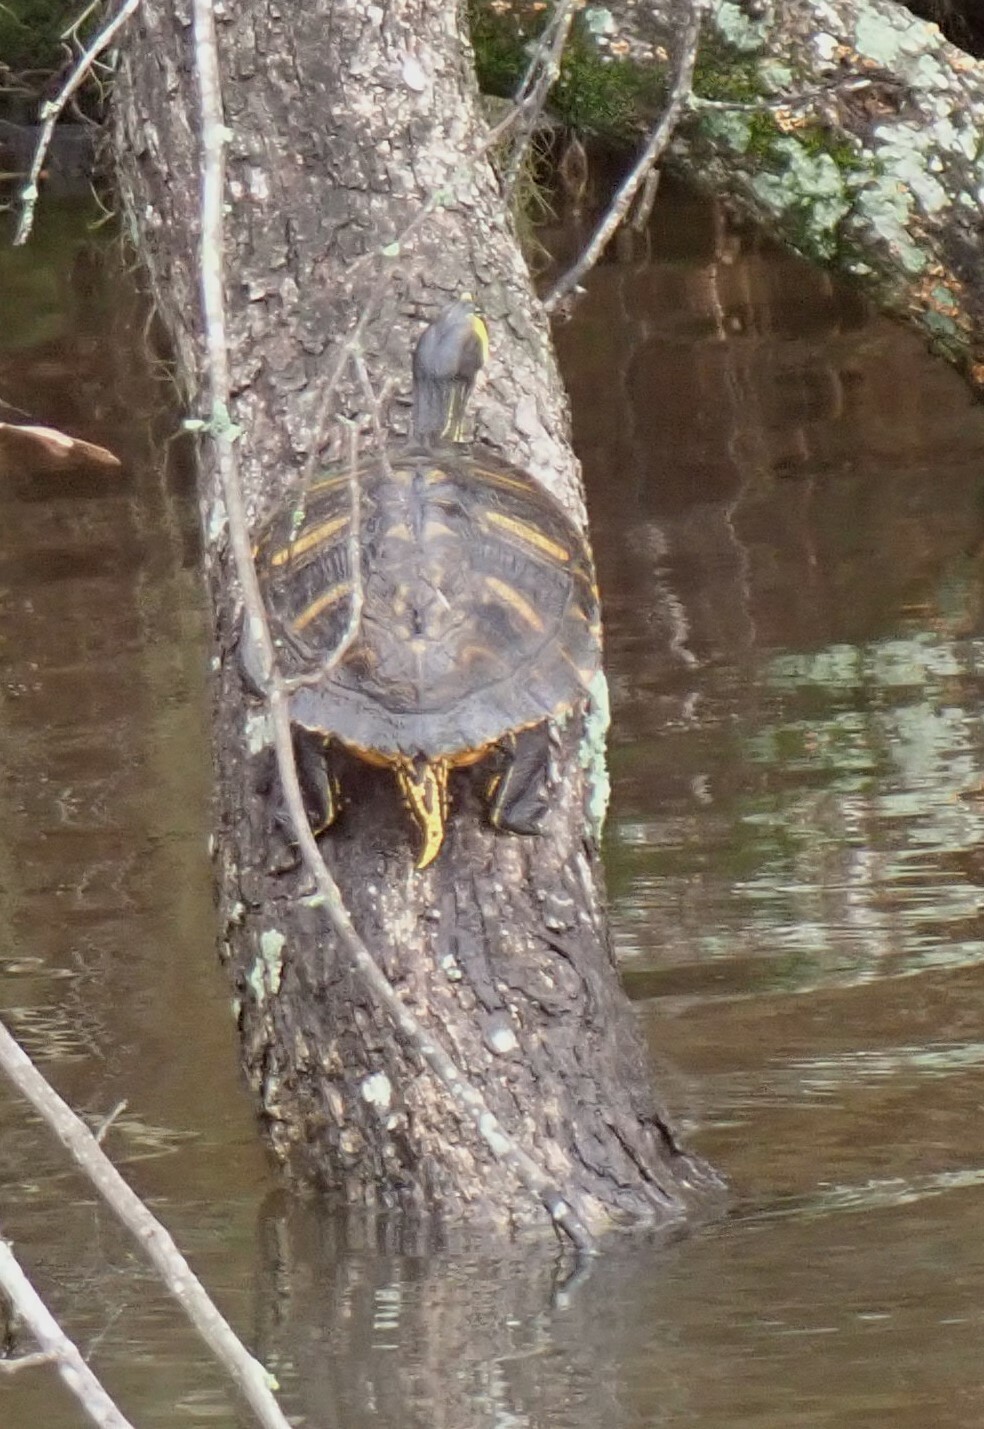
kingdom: Animalia
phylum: Chordata
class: Testudines
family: Emydidae
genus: Trachemys
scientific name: Trachemys scripta
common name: Slider
